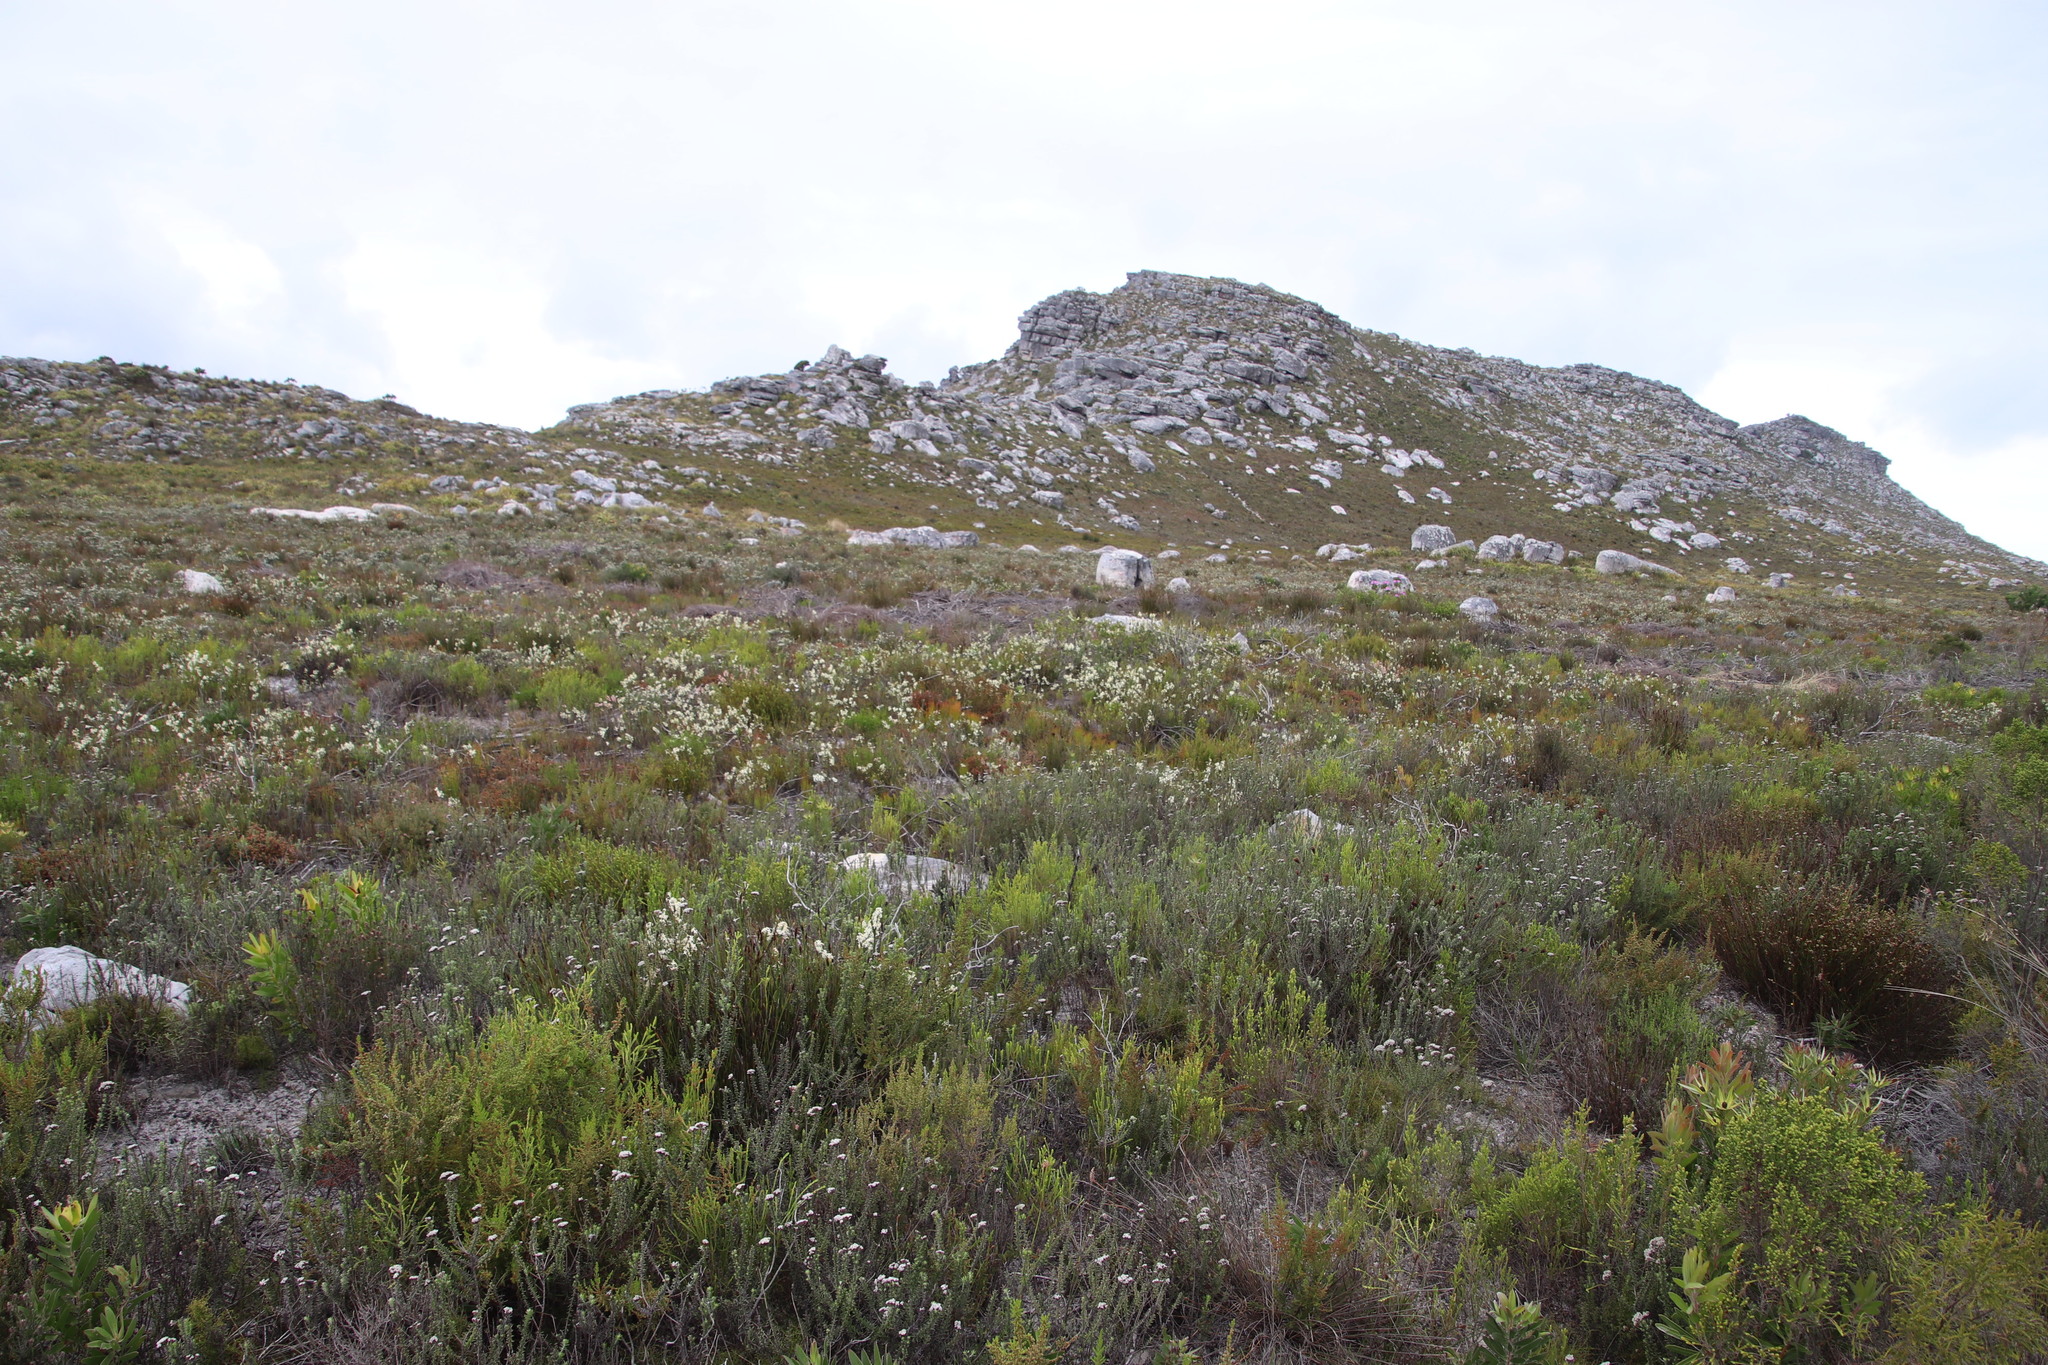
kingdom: Plantae
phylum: Tracheophyta
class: Magnoliopsida
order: Malvales
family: Thymelaeaceae
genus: Struthiola
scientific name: Struthiola ciliata
